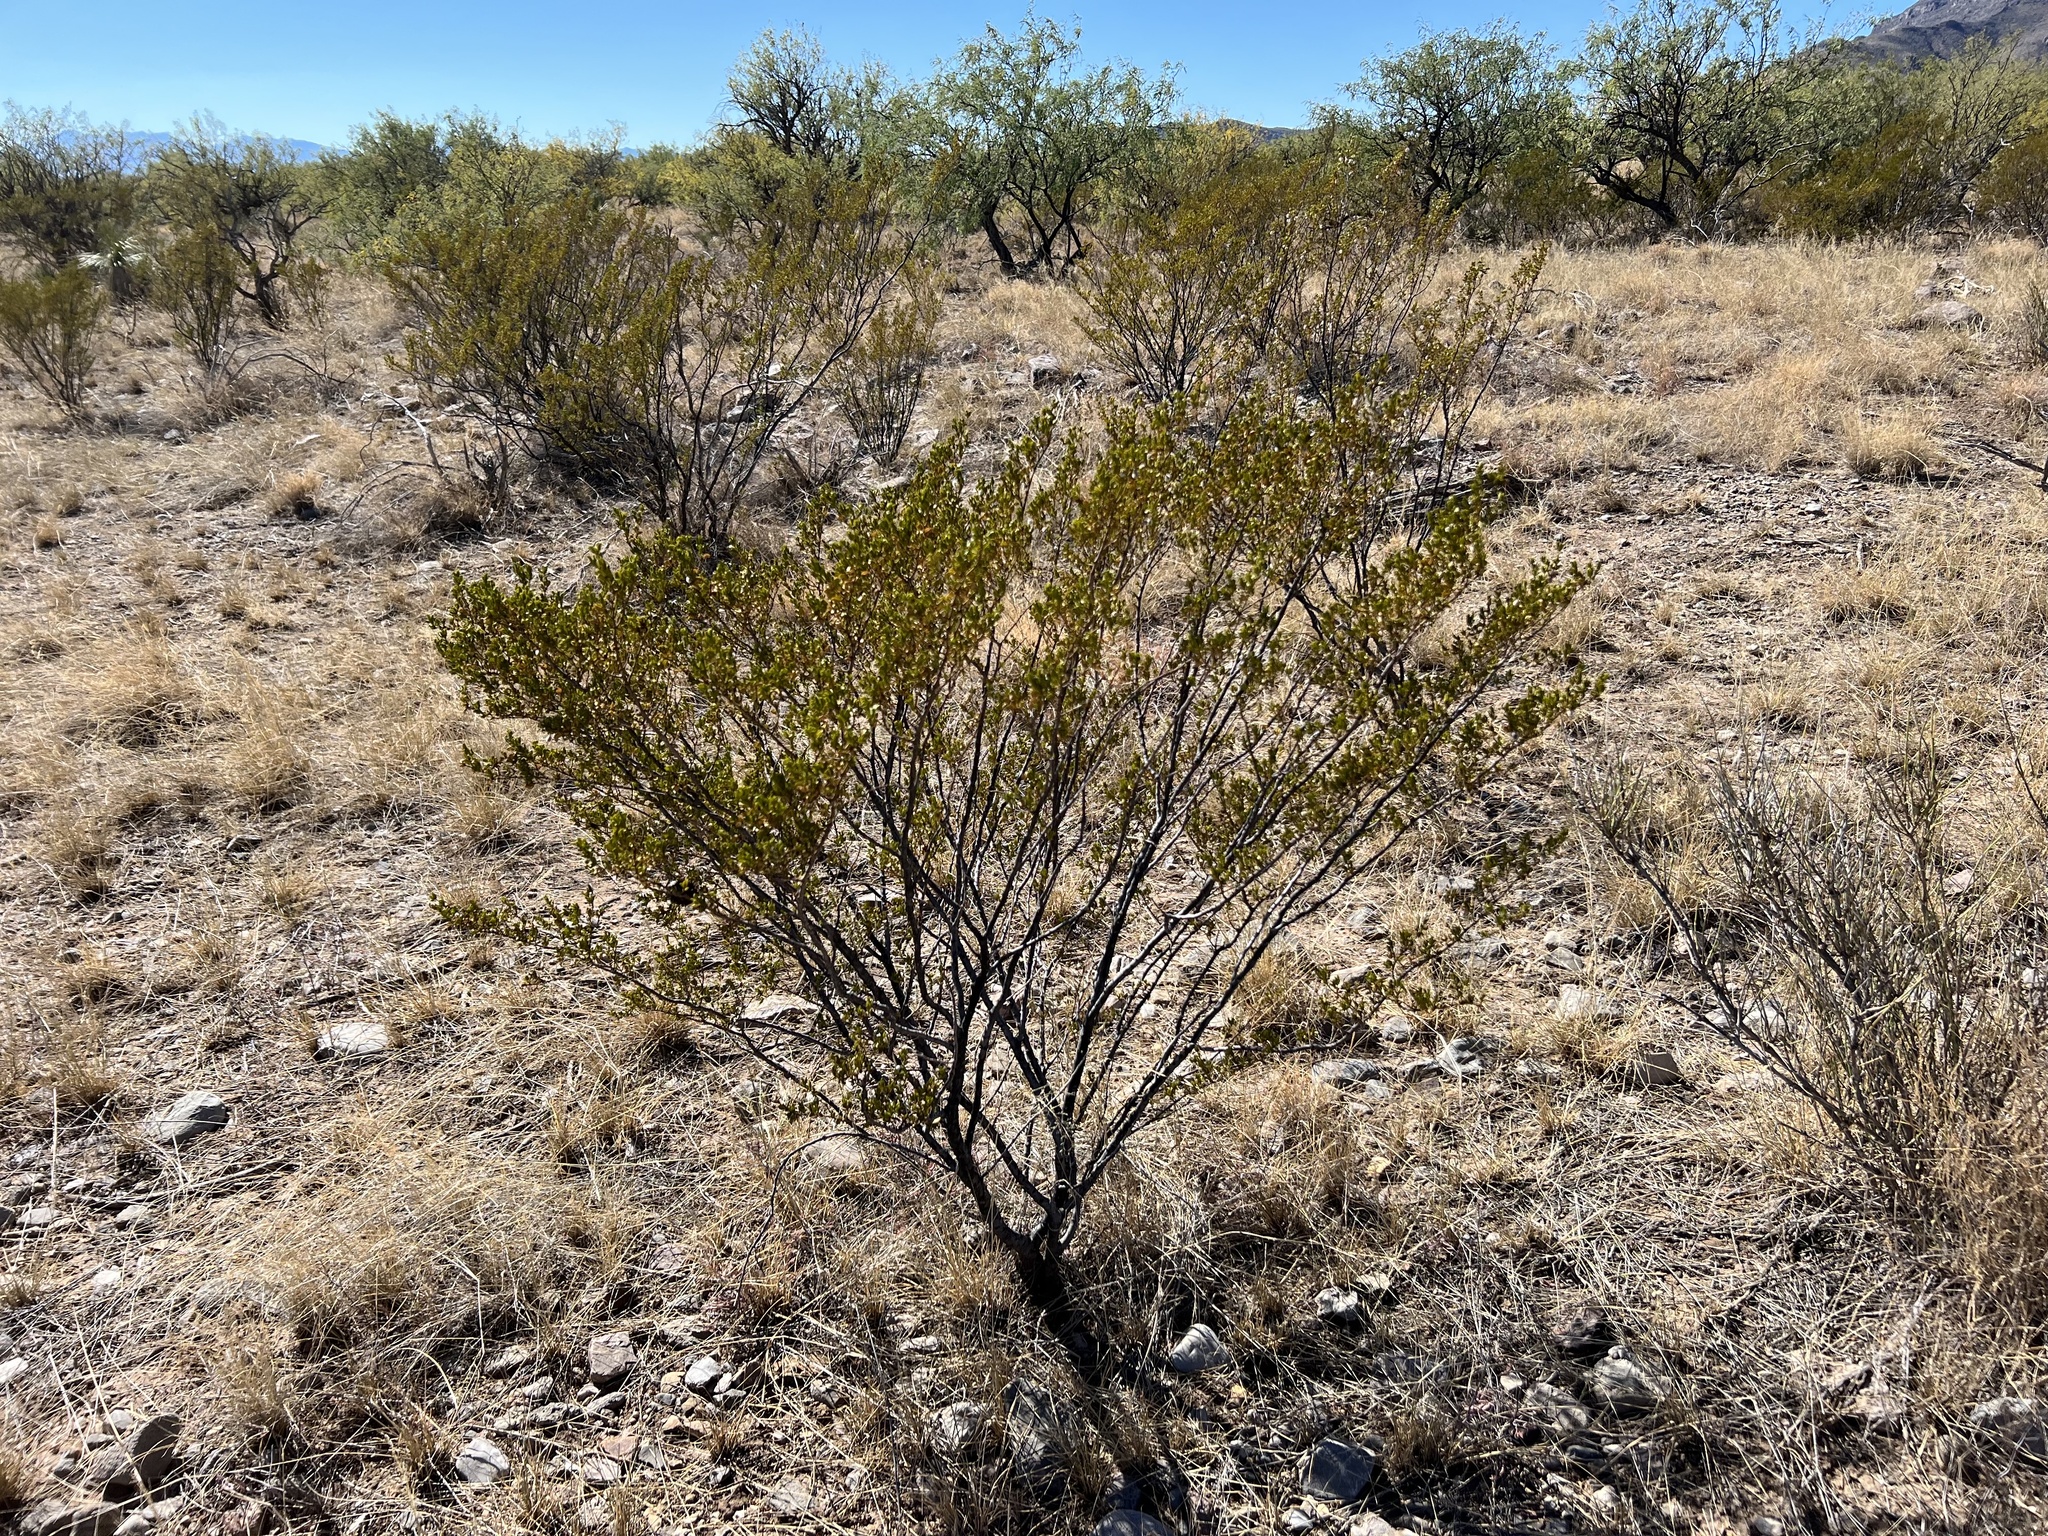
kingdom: Plantae
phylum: Tracheophyta
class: Magnoliopsida
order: Zygophyllales
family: Zygophyllaceae
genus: Larrea
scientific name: Larrea tridentata
